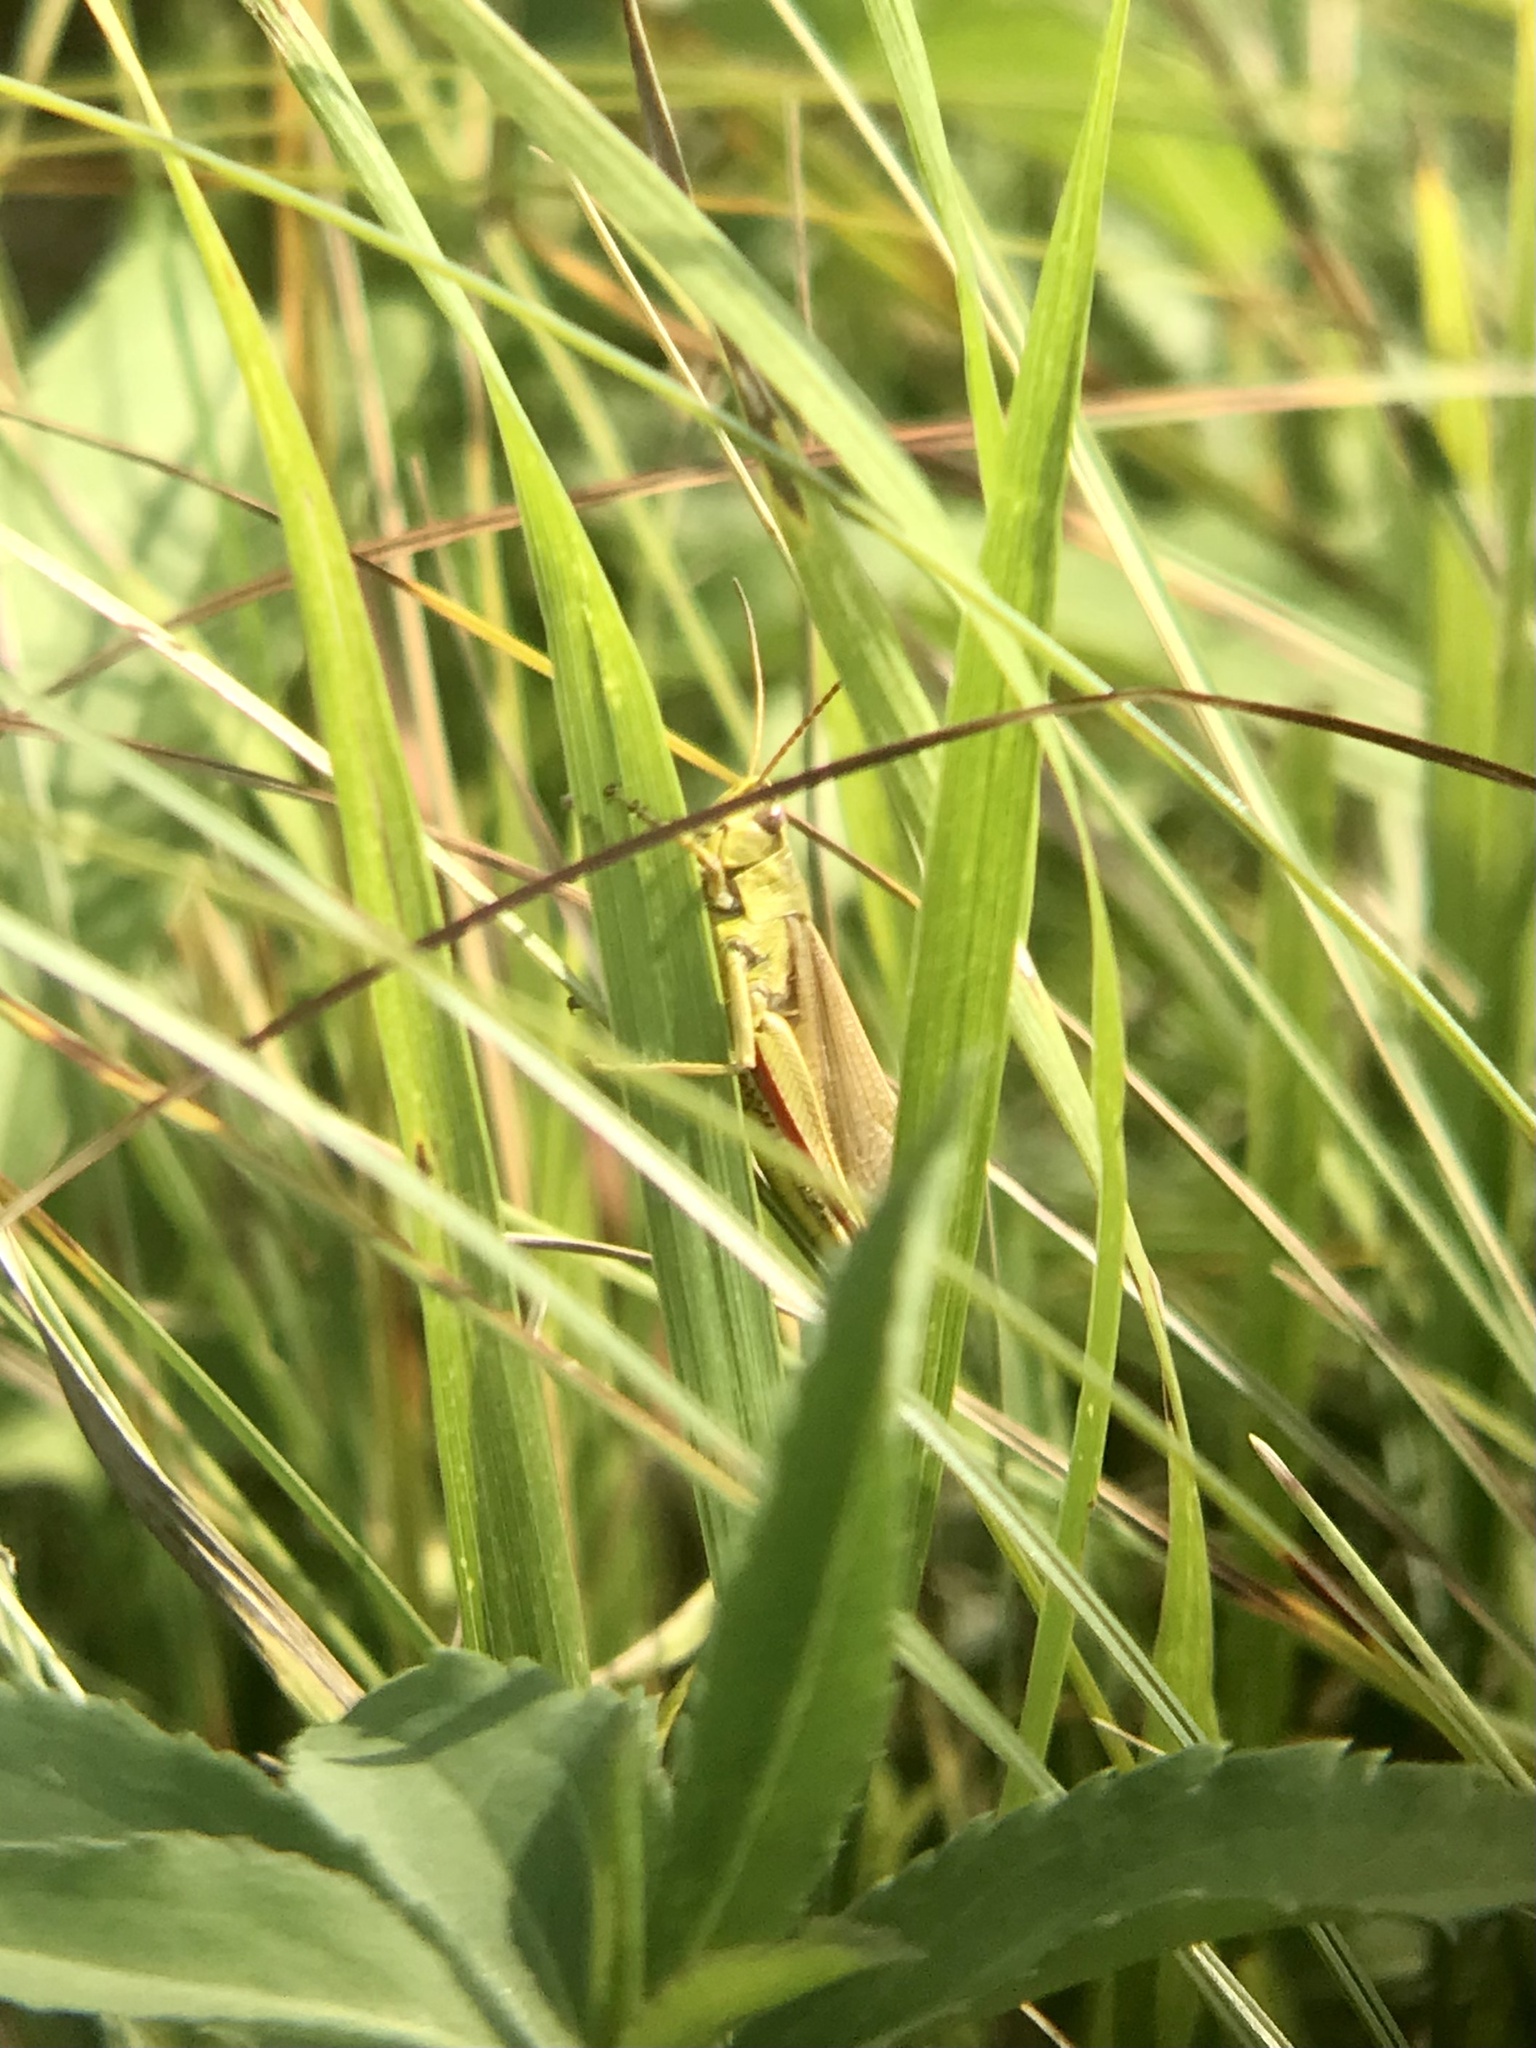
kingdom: Animalia
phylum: Arthropoda
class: Insecta
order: Orthoptera
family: Acrididae
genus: Stethophyma
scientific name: Stethophyma gracile
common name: Graceful sedge grasshopper
